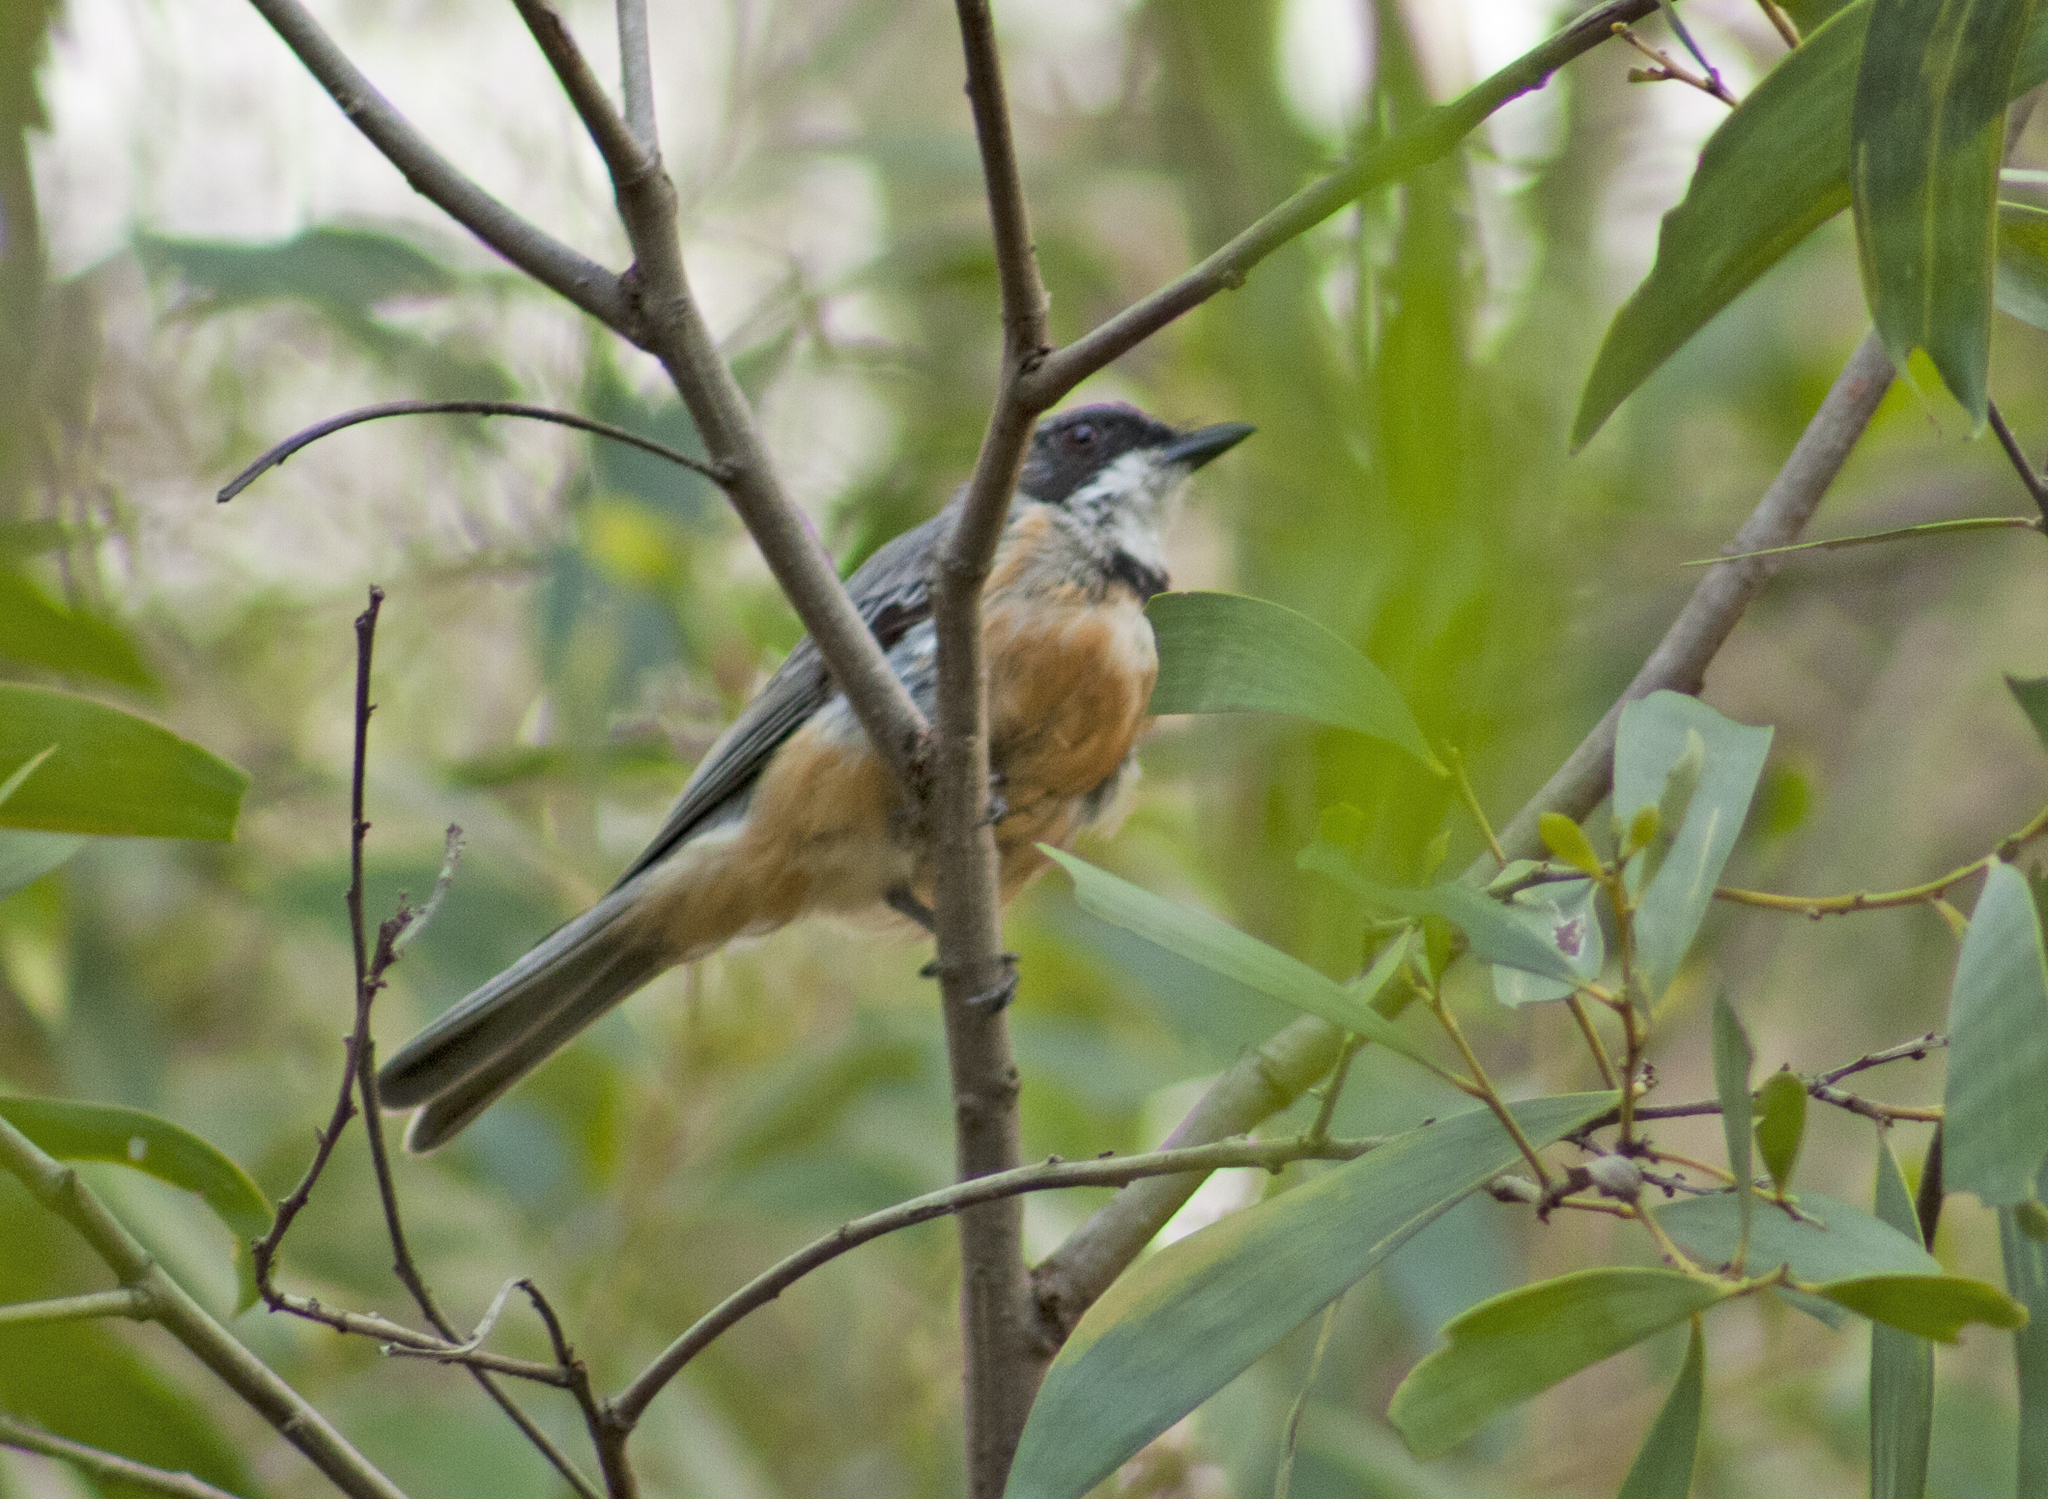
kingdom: Animalia
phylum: Chordata
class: Aves
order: Passeriformes
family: Pachycephalidae
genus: Pachycephala
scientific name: Pachycephala rufiventris
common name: Rufous whistler
